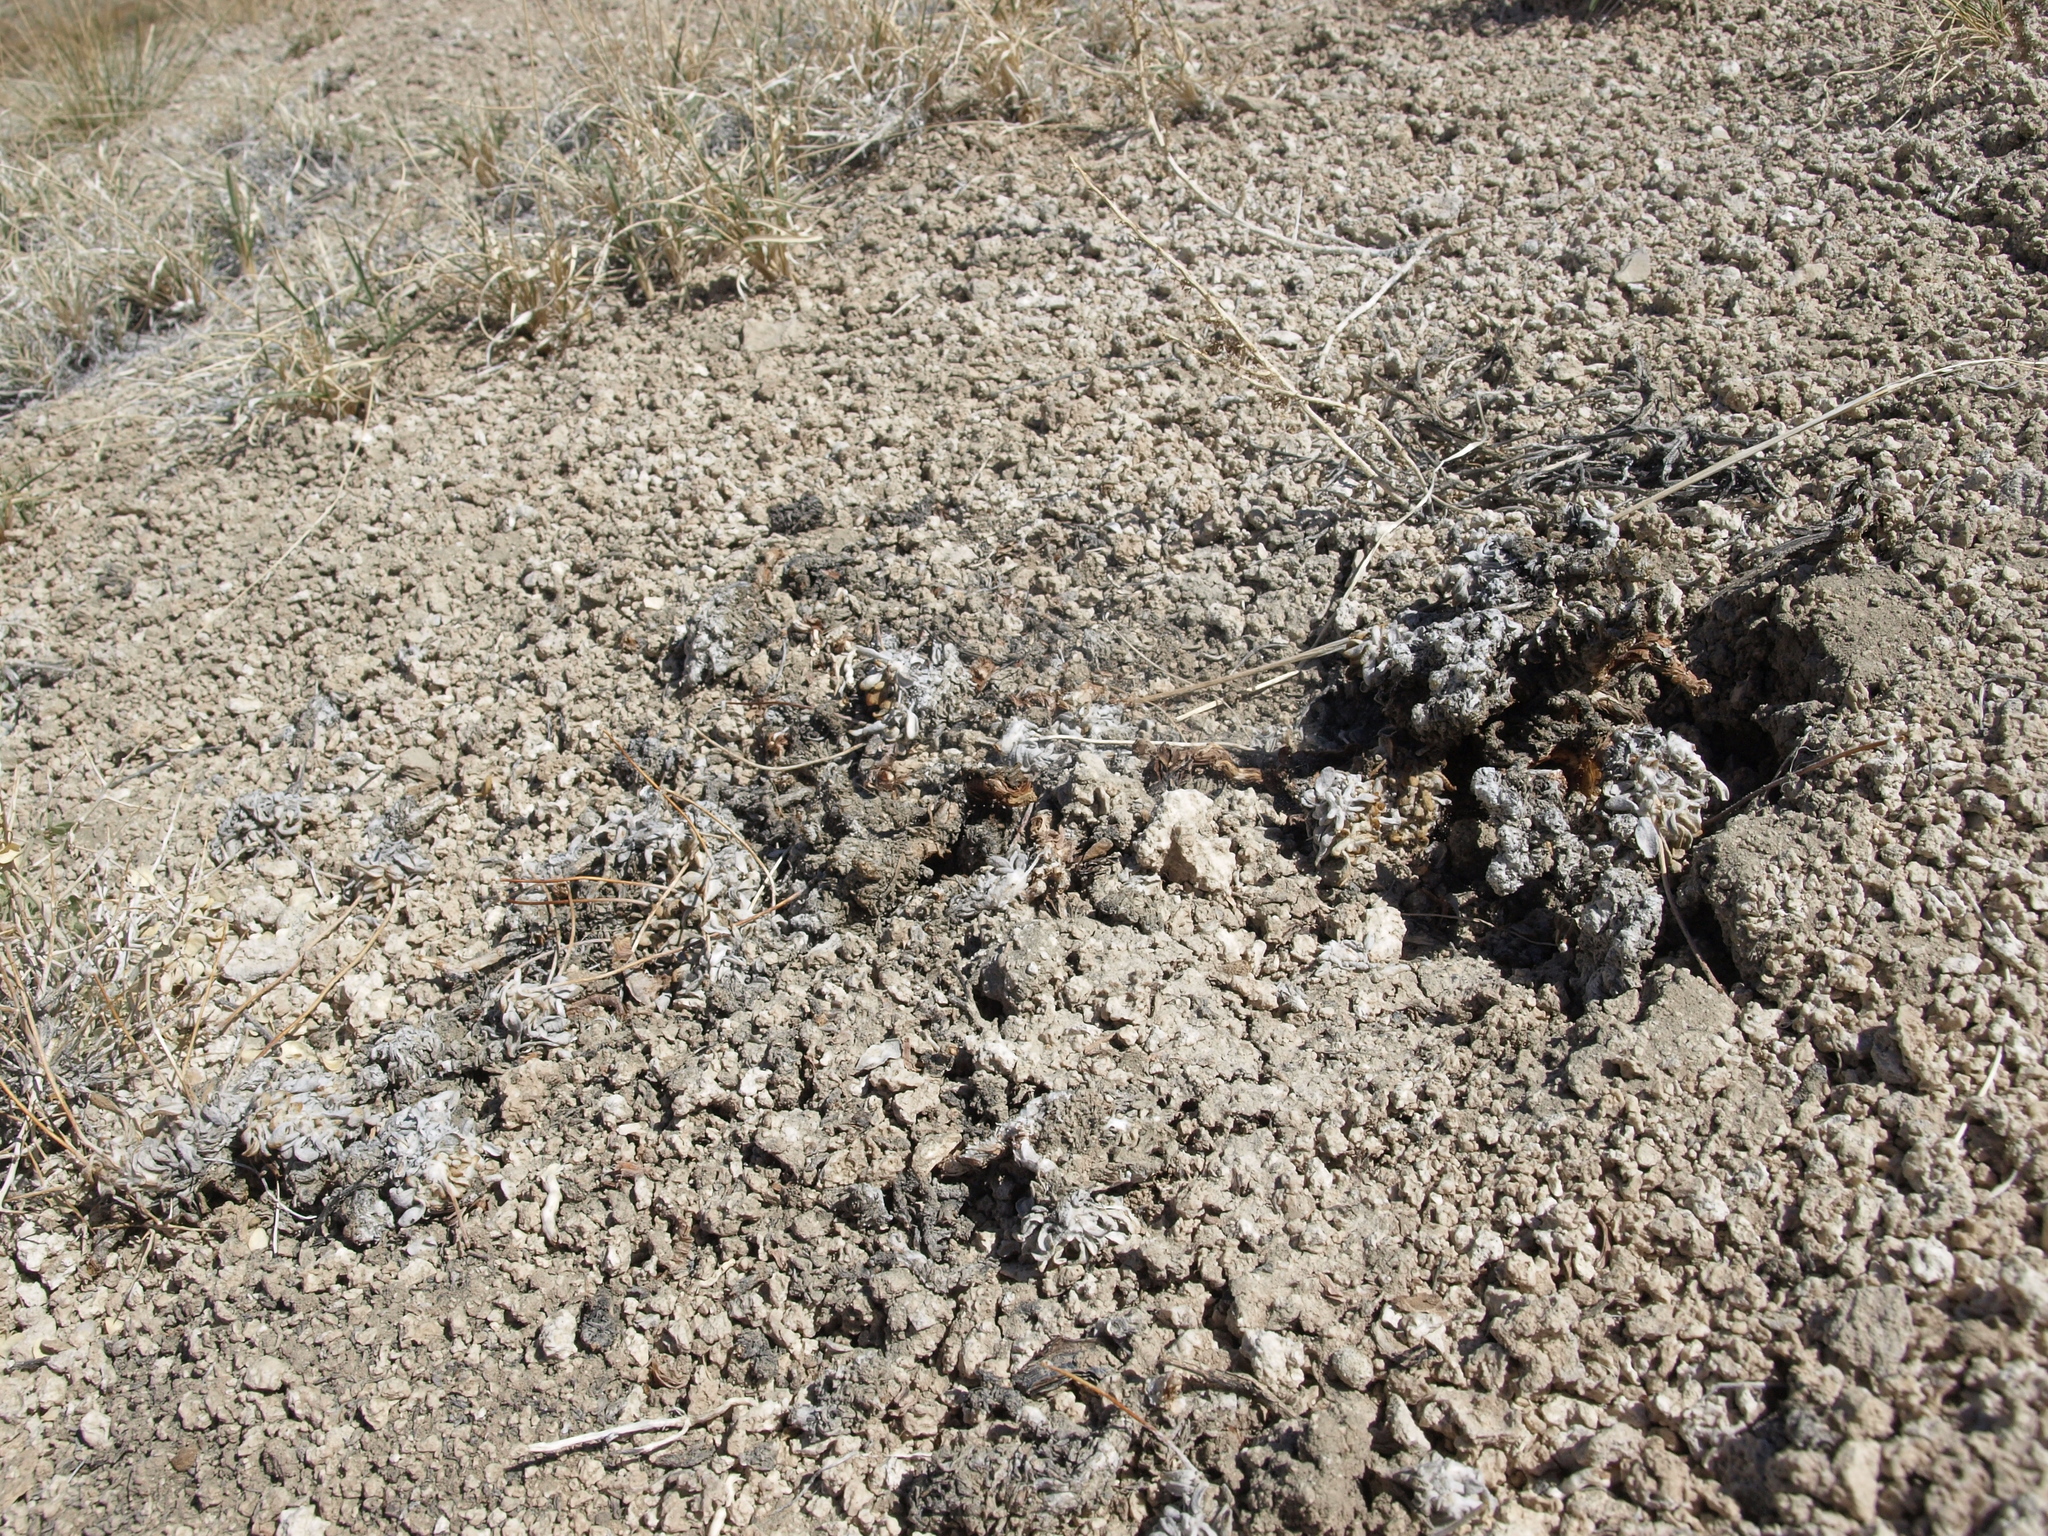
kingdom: Plantae
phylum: Tracheophyta
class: Magnoliopsida
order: Caryophyllales
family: Polygonaceae
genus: Eriogonum
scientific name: Eriogonum tiehmii
